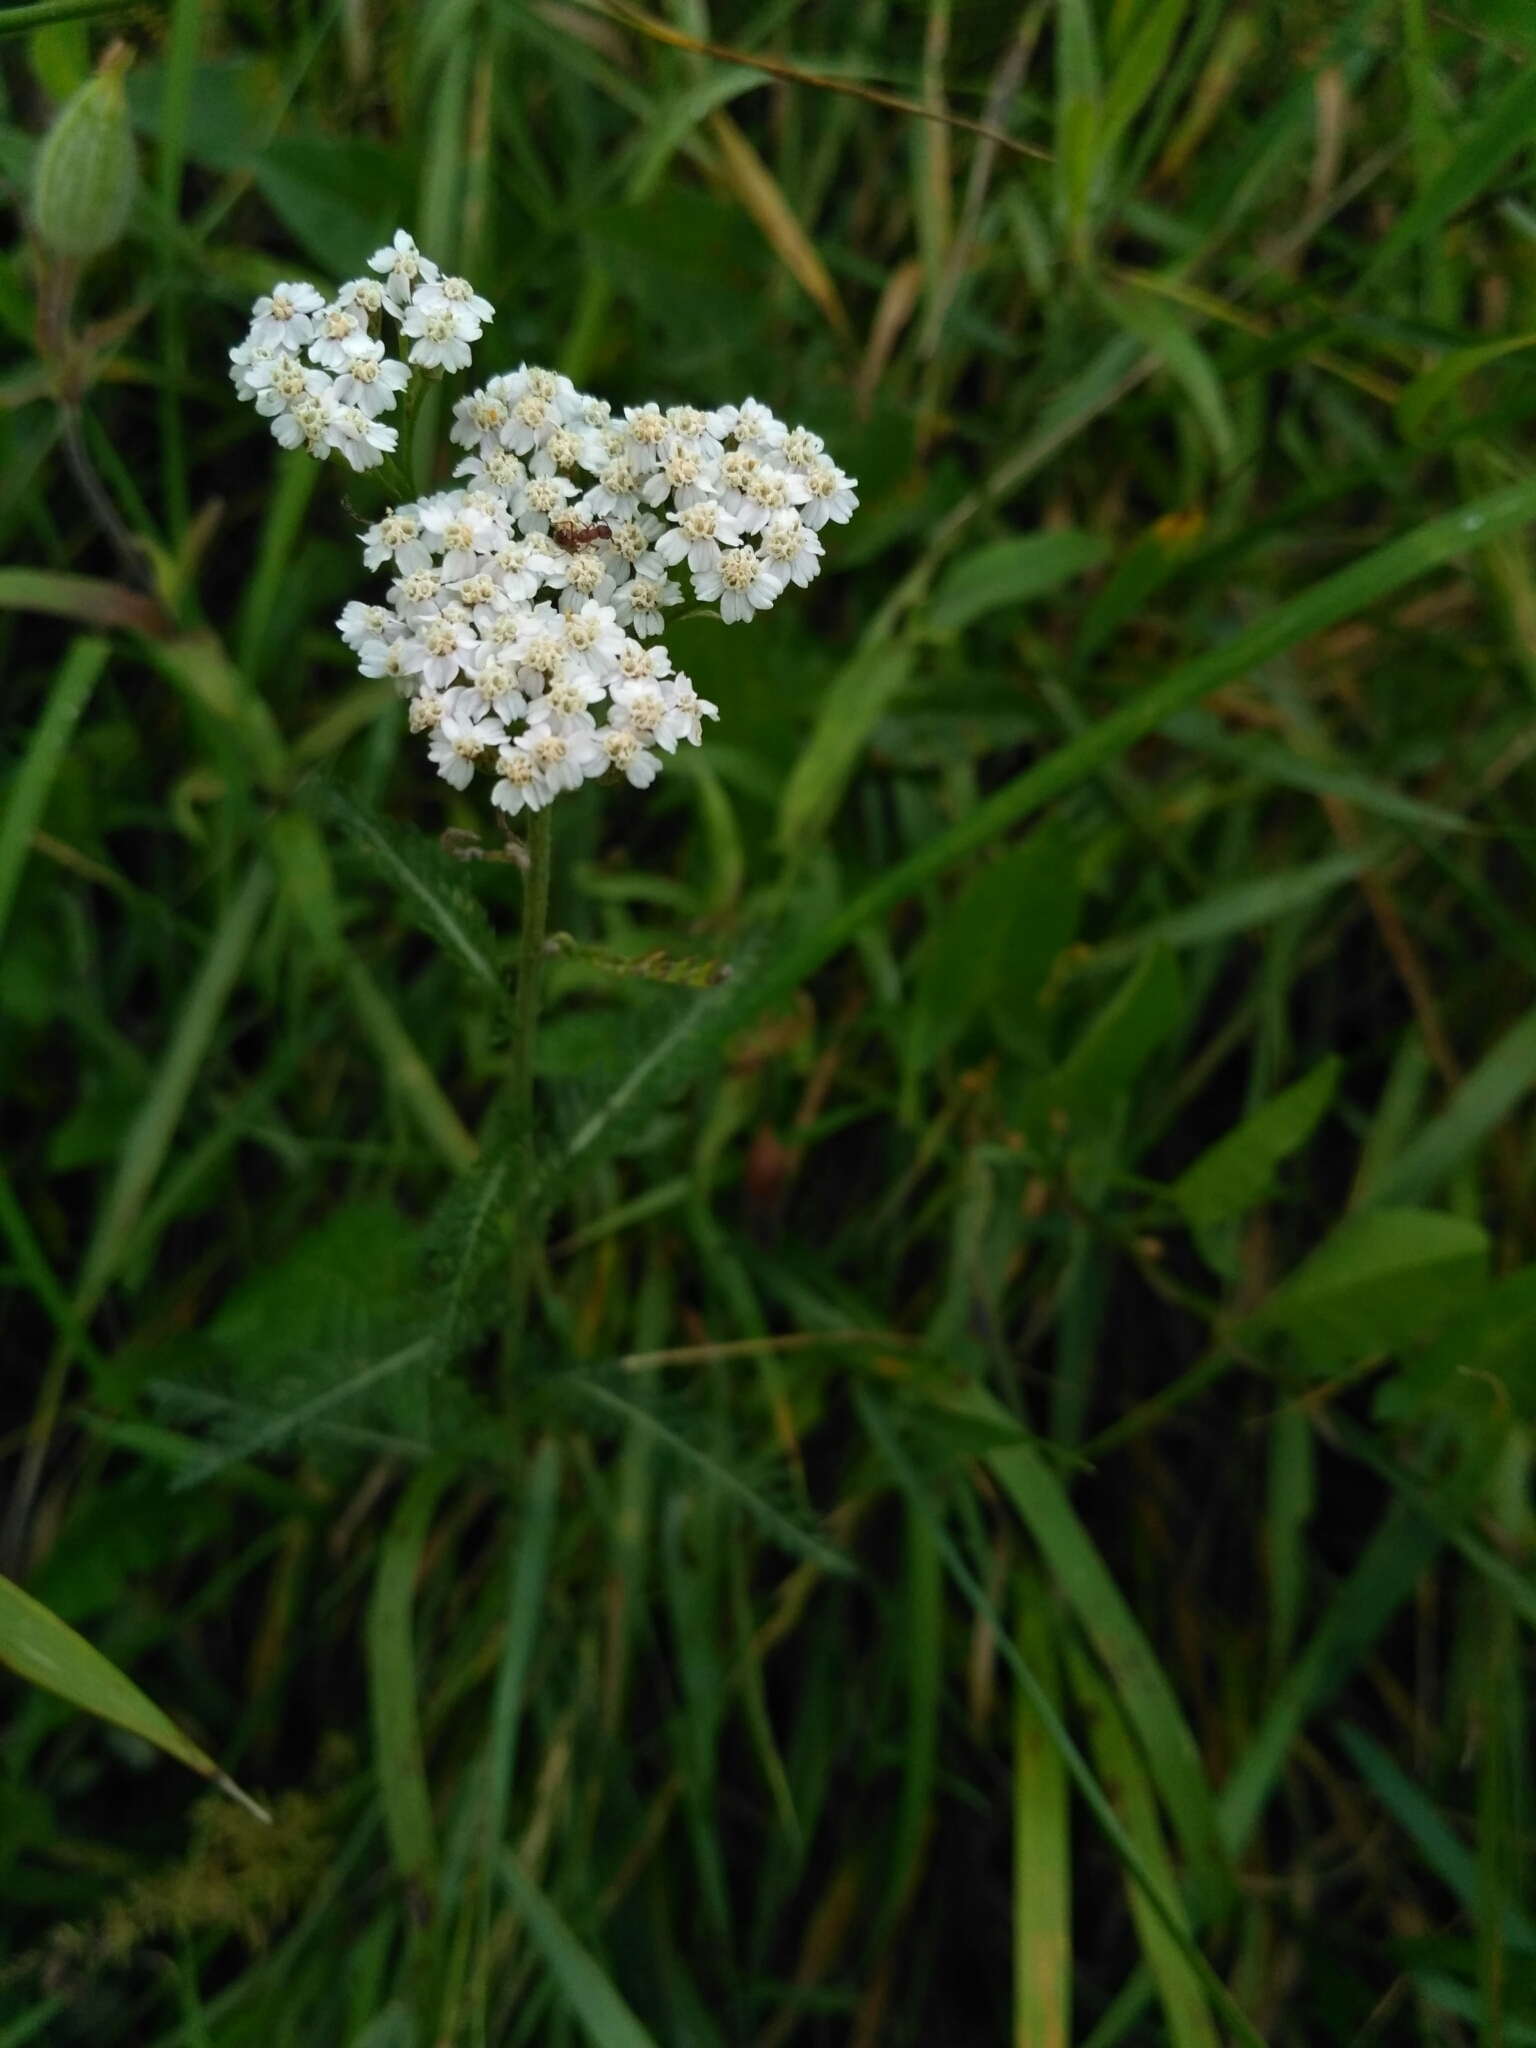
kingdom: Plantae
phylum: Tracheophyta
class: Magnoliopsida
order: Asterales
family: Asteraceae
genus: Achillea
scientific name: Achillea millefolium
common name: Yarrow
